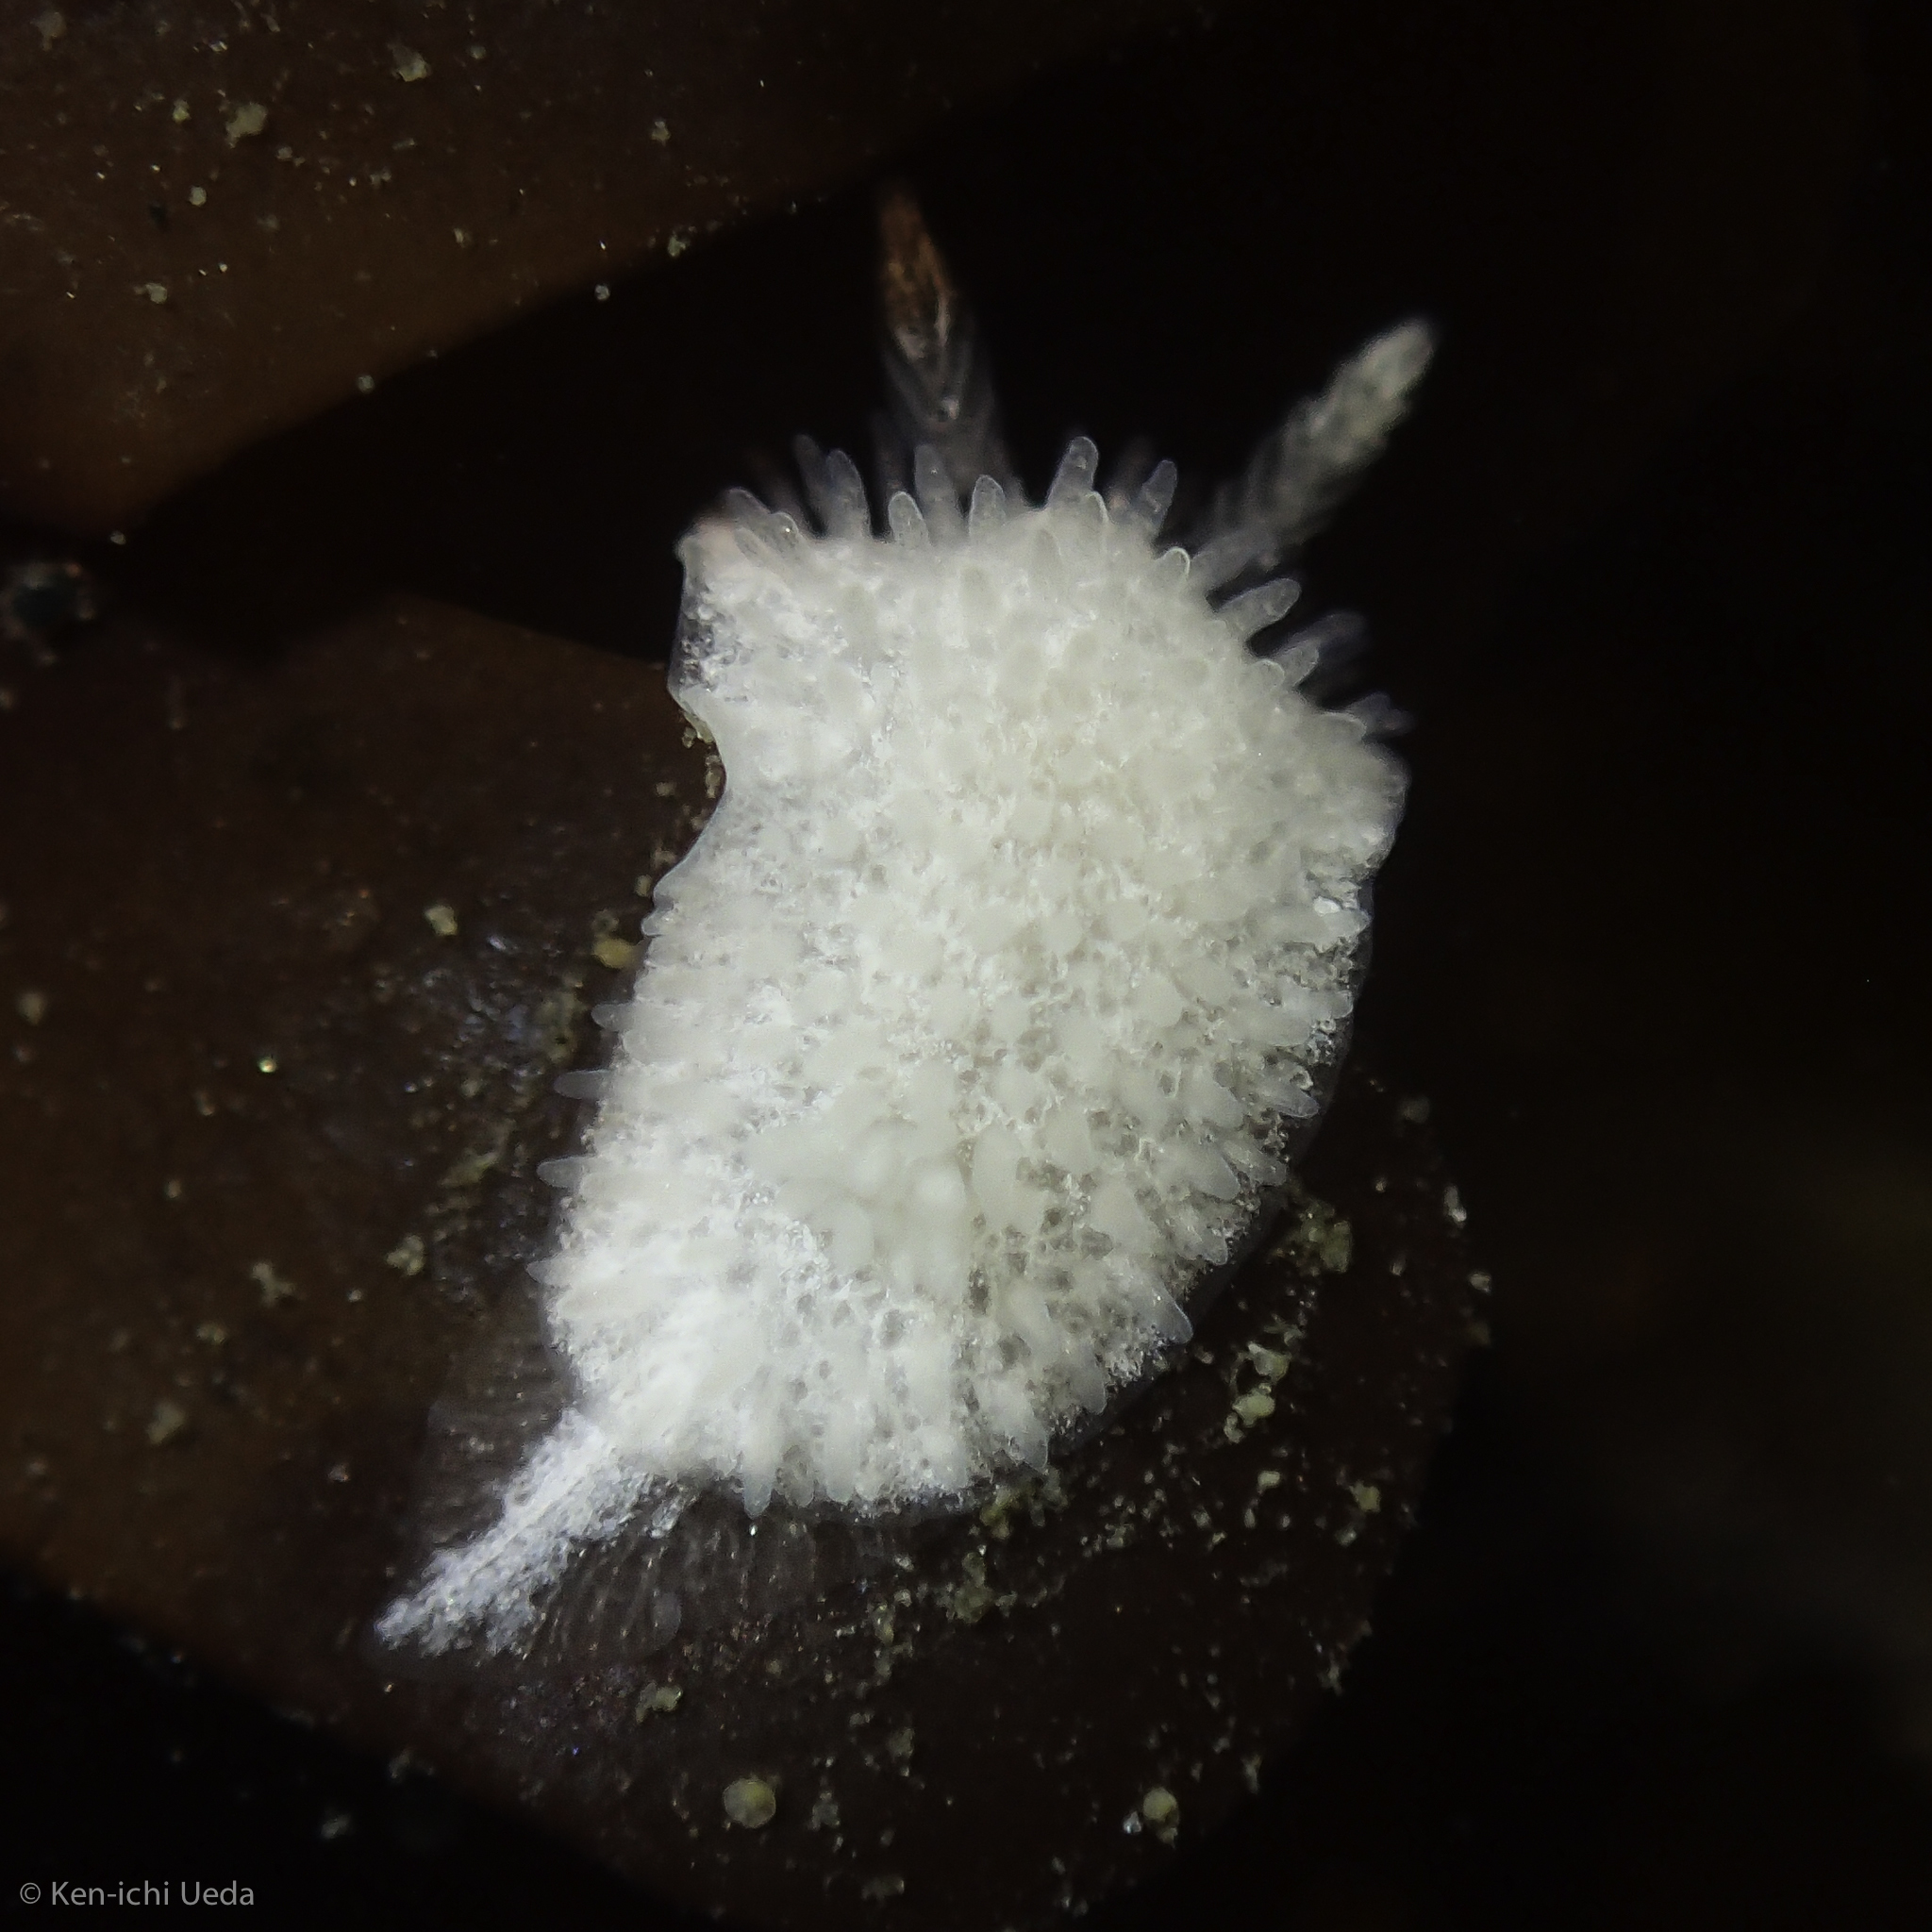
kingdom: Animalia
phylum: Mollusca
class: Gastropoda
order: Nudibranchia
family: Calycidorididae
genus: Diaphorodoris
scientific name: Diaphorodoris lirulatocauda
